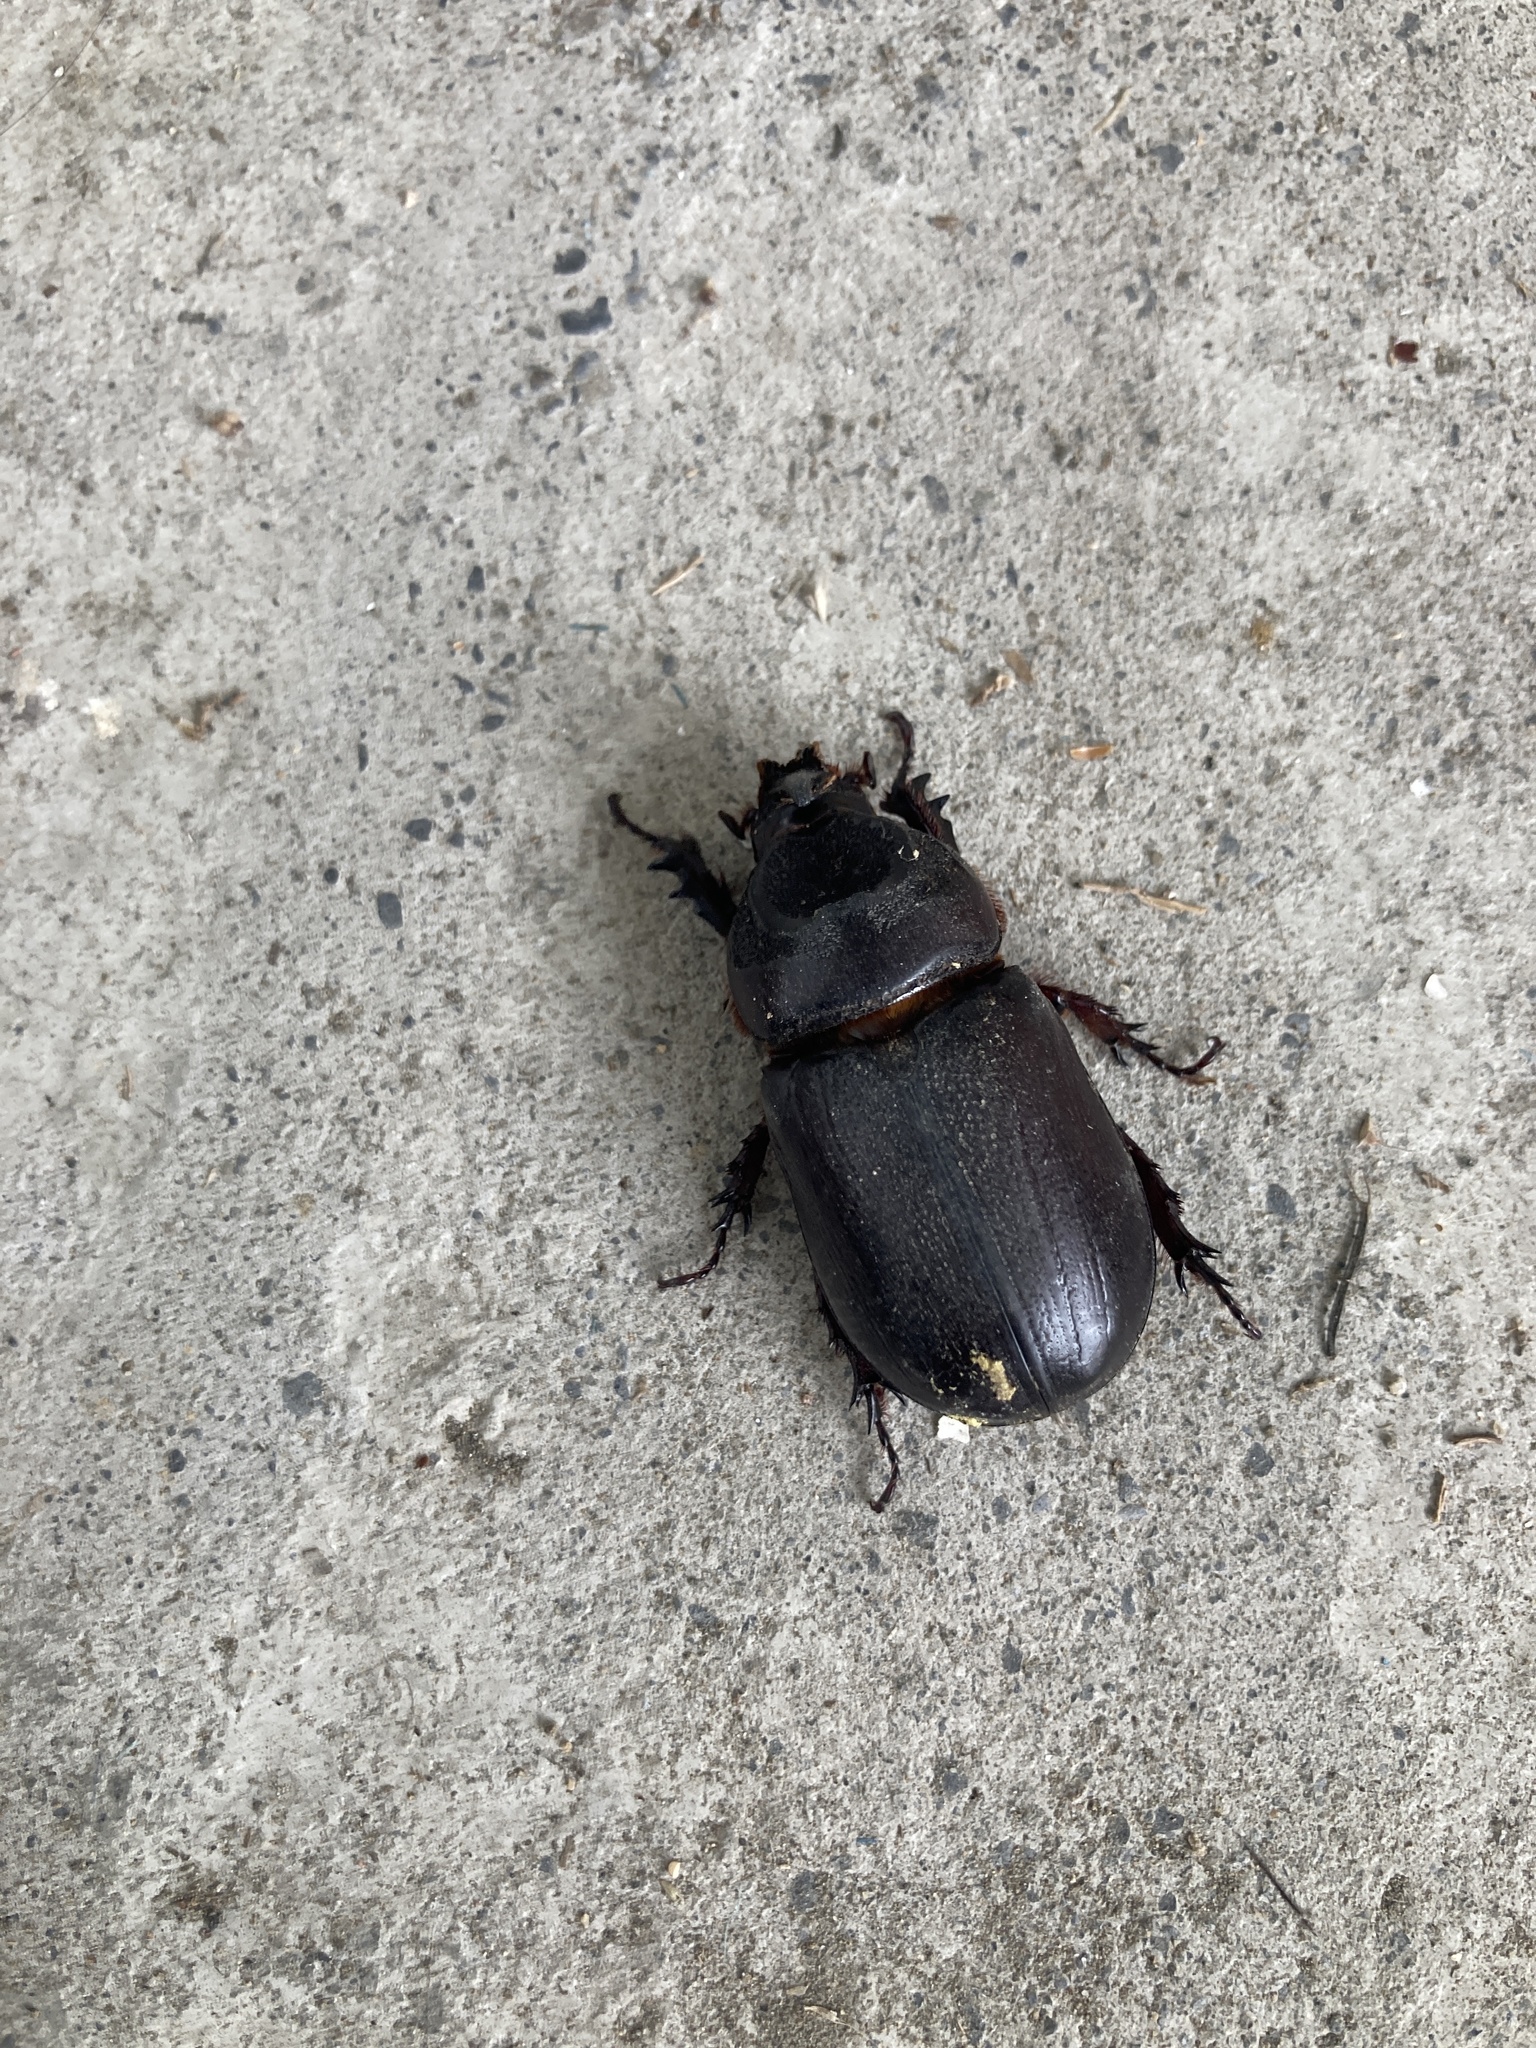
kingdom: Animalia
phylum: Arthropoda
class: Insecta
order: Coleoptera
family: Scarabaeidae
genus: Oryctes
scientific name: Oryctes rhinoceros
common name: Coconut rhinoceros beetle
